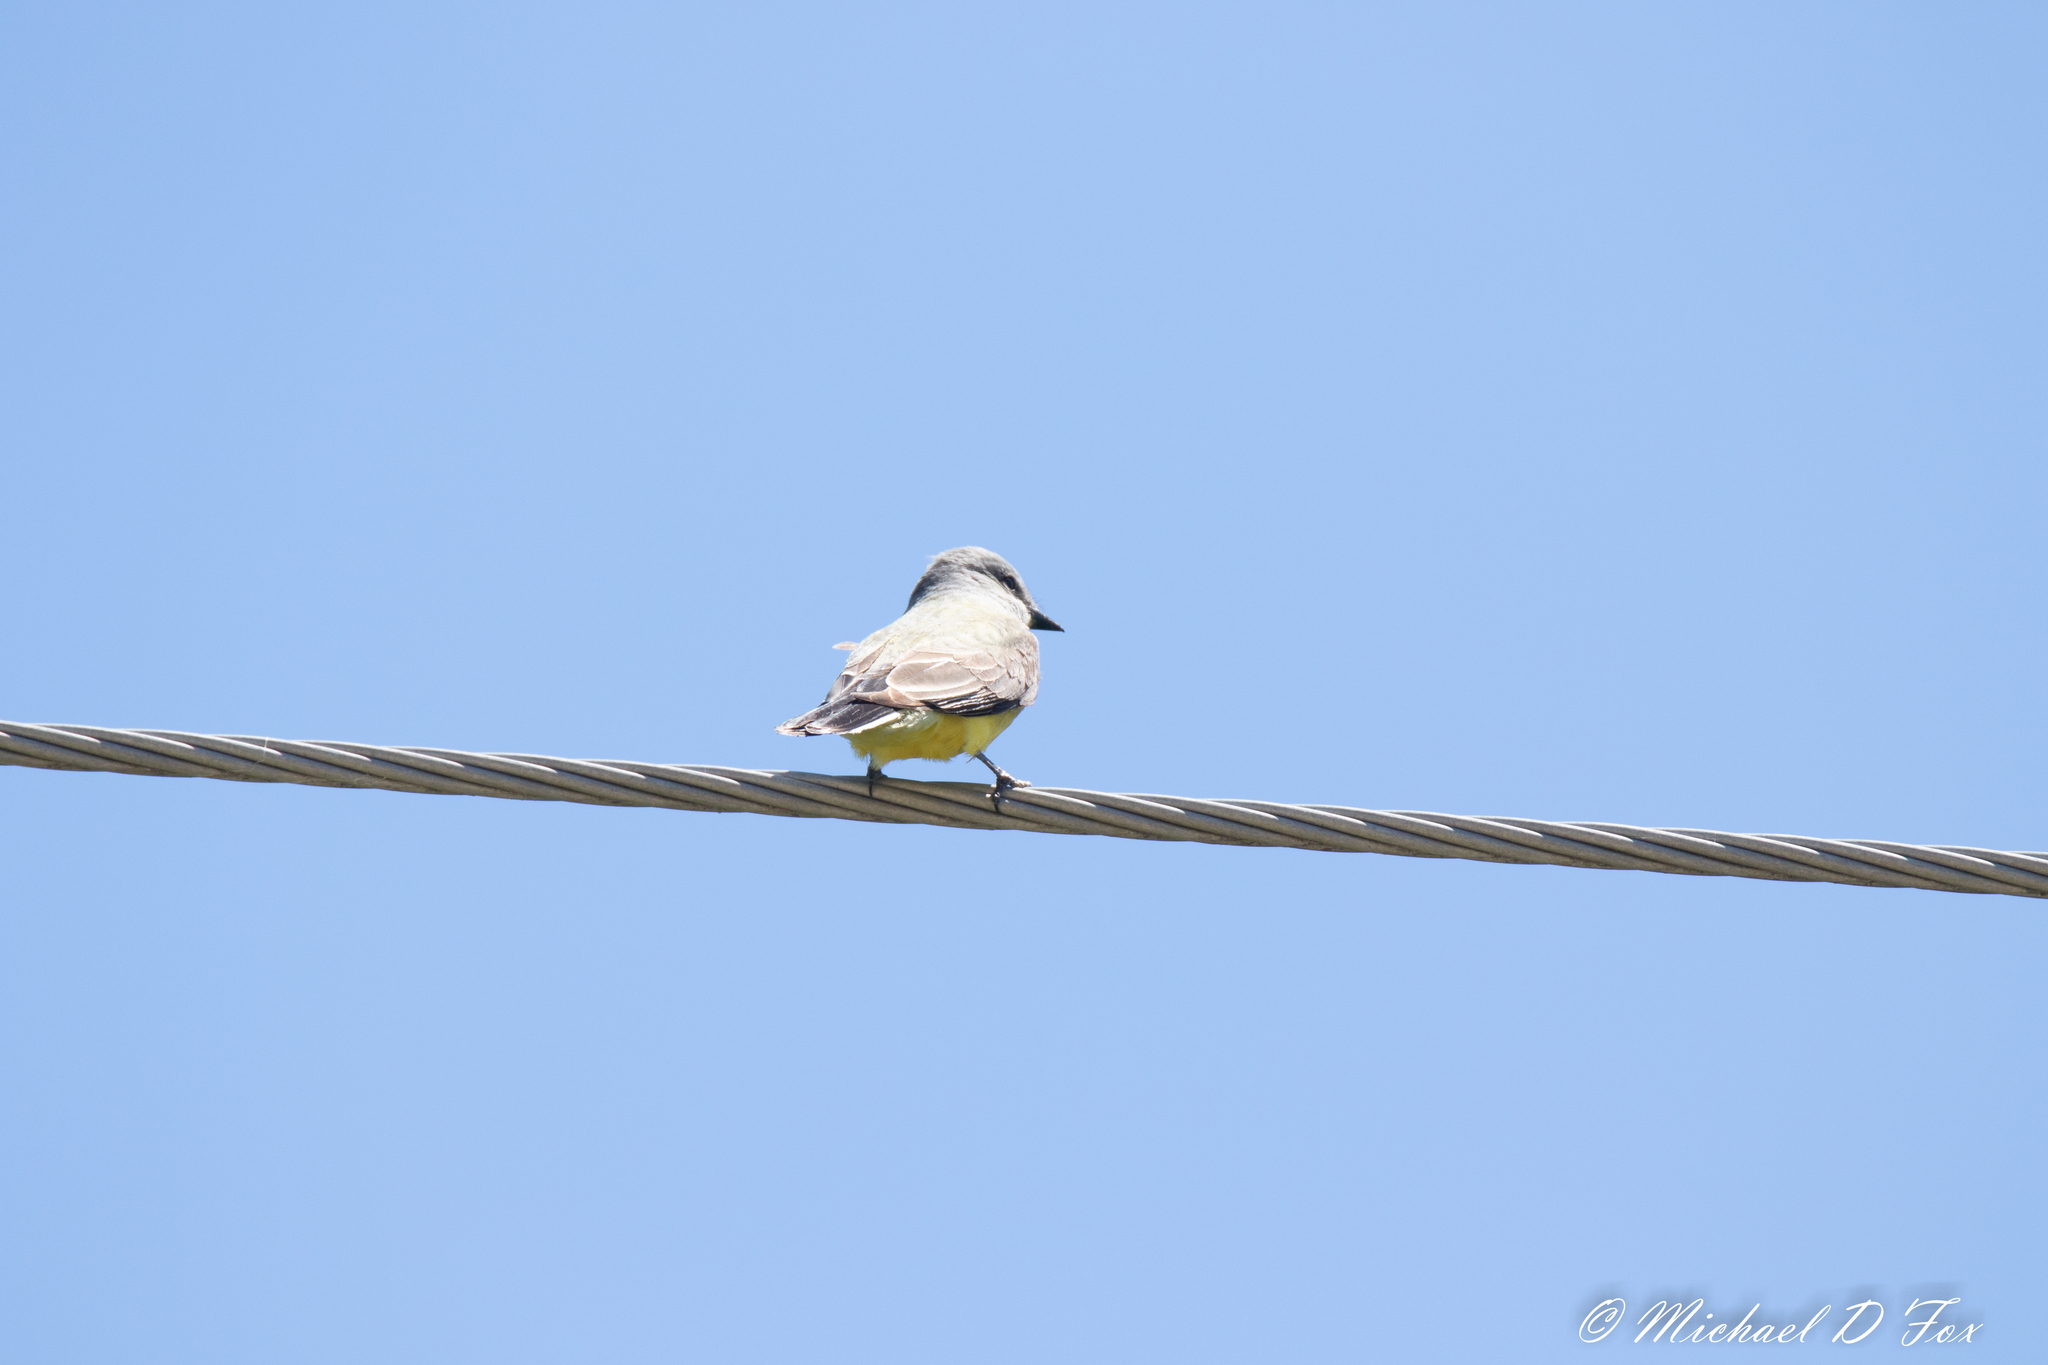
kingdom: Animalia
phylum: Chordata
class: Aves
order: Passeriformes
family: Tyrannidae
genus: Tyrannus
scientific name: Tyrannus verticalis
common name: Western kingbird
